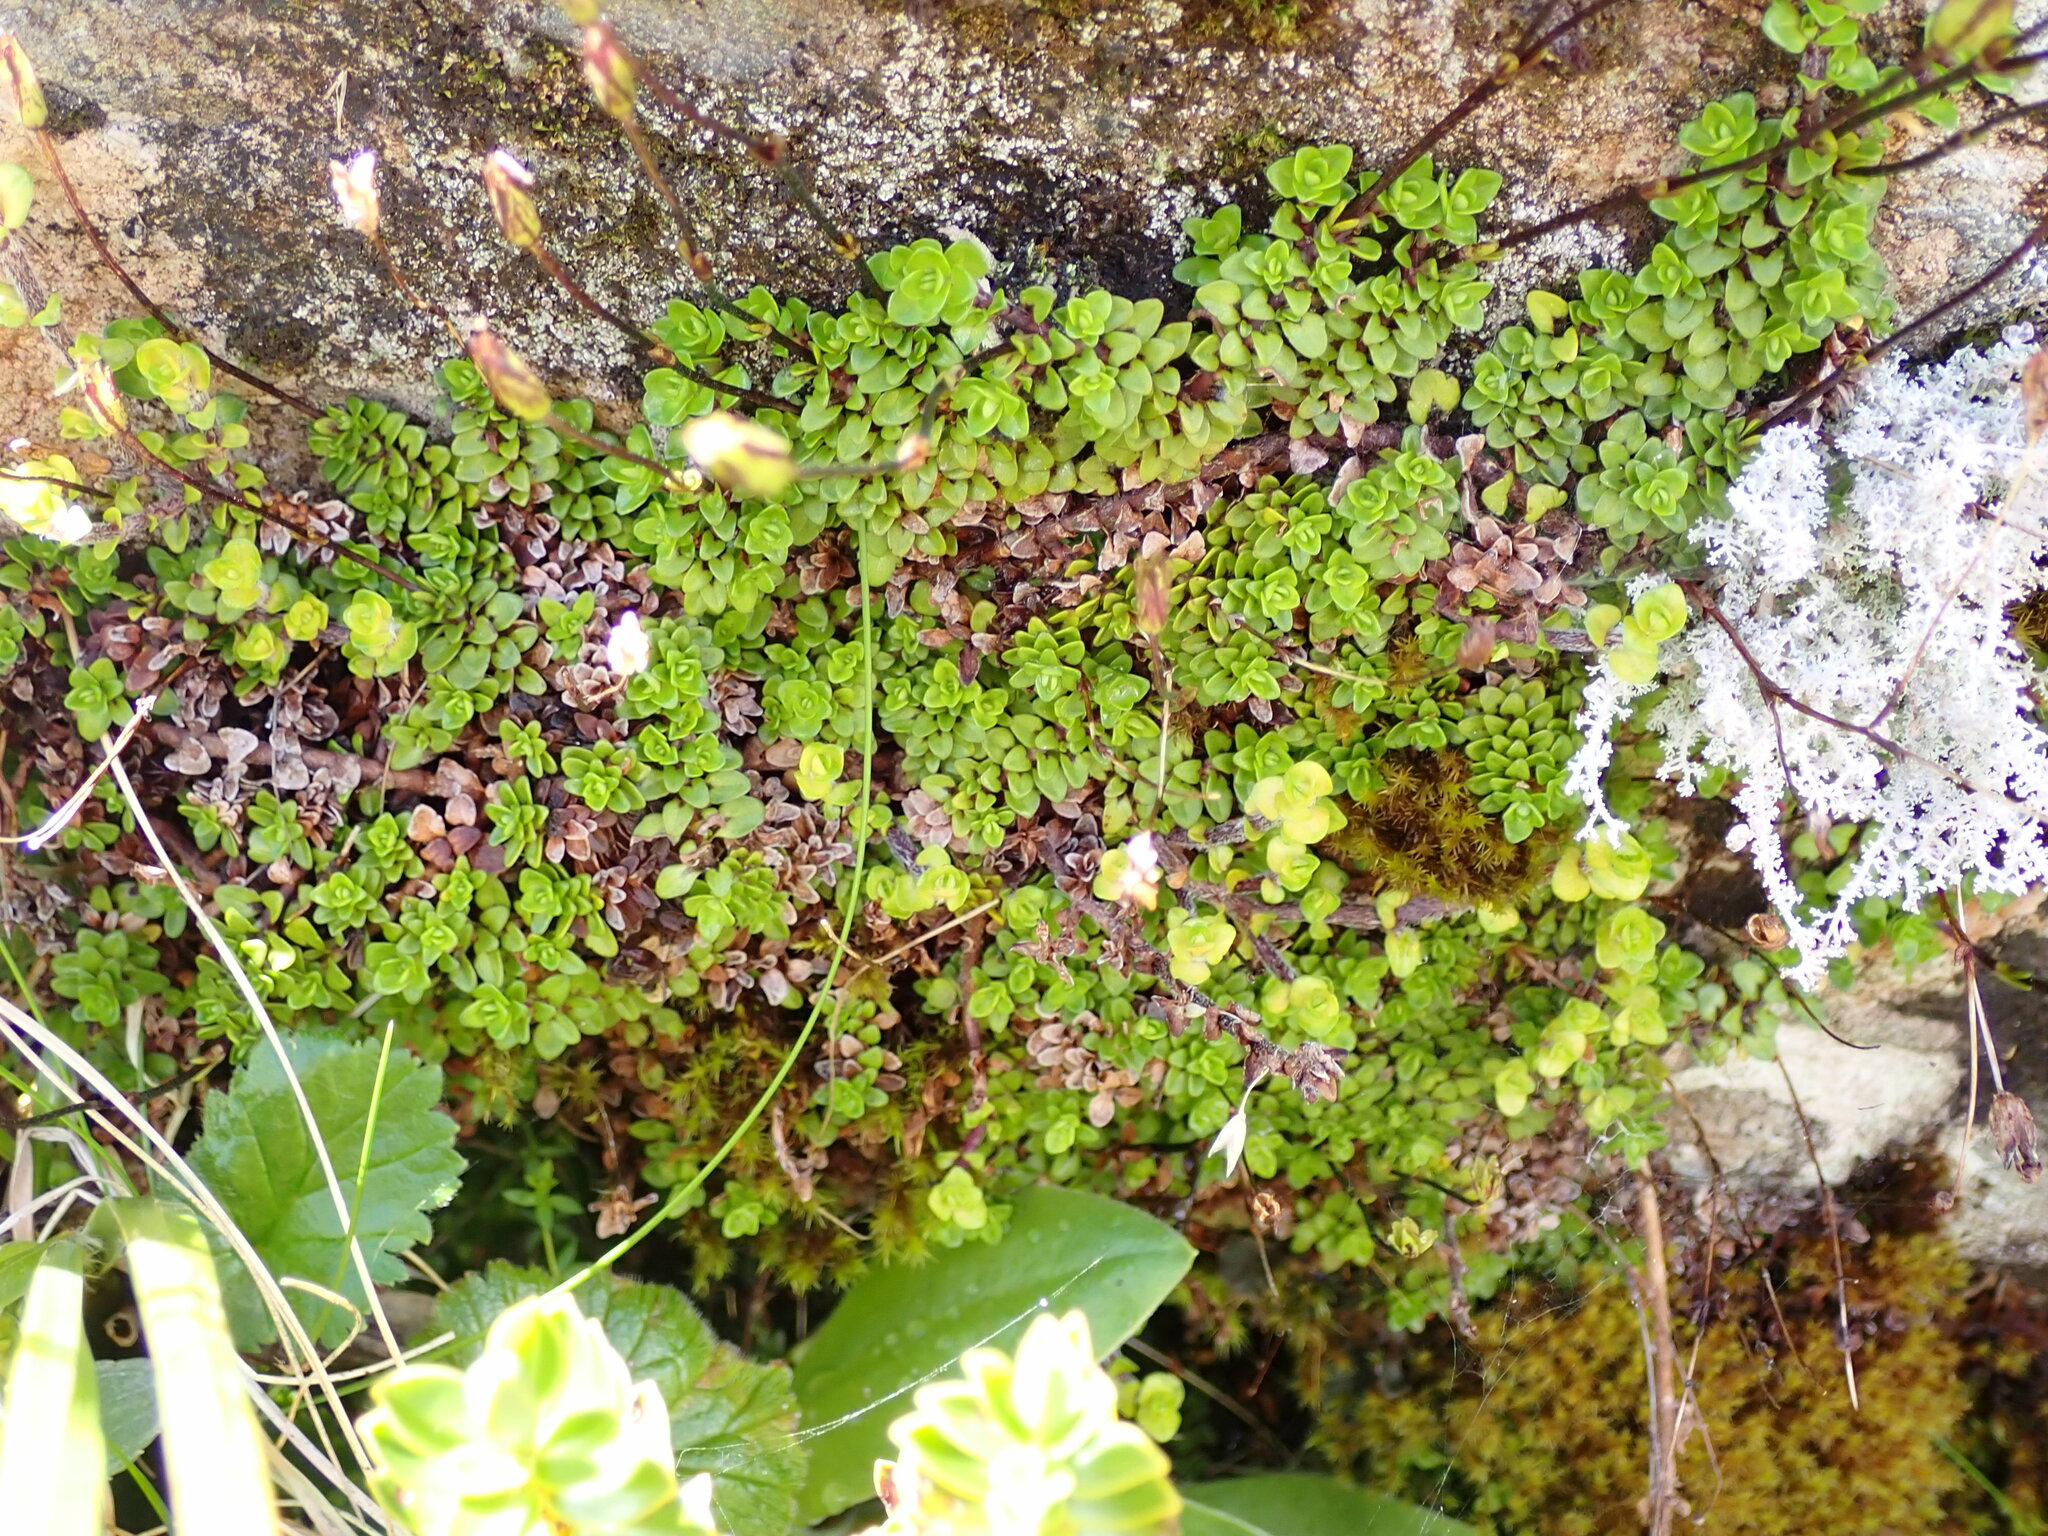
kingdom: Plantae
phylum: Tracheophyta
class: Magnoliopsida
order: Lamiales
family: Plantaginaceae
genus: Ourisia
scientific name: Ourisia caespitosa
